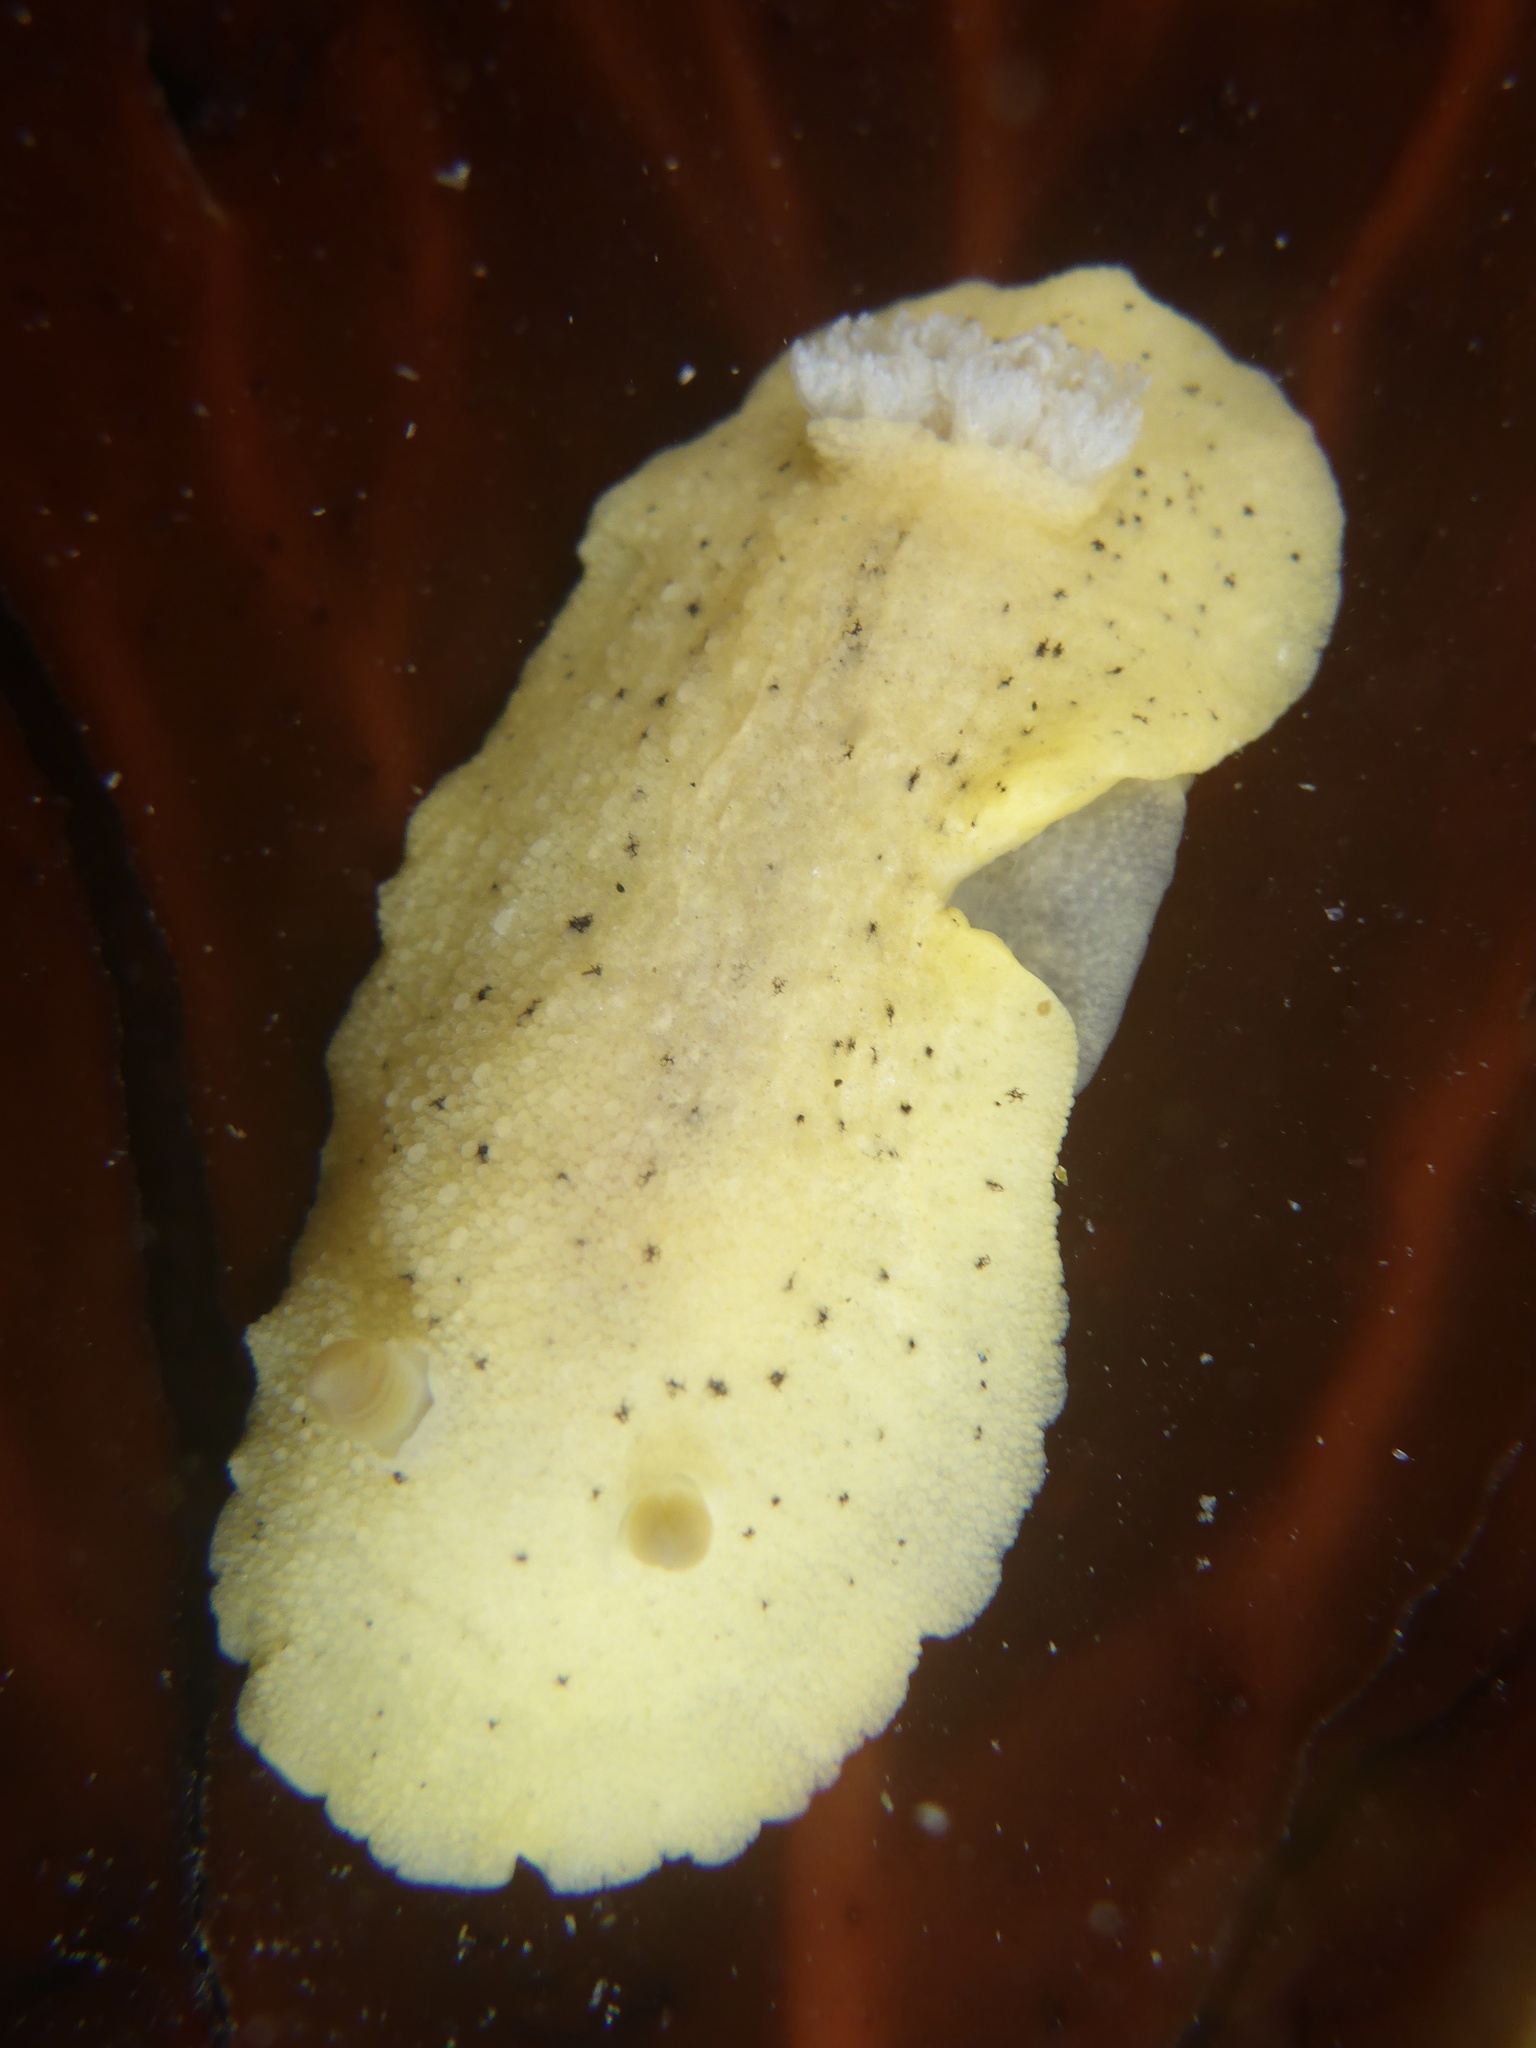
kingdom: Animalia
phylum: Mollusca
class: Gastropoda
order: Nudibranchia
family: Discodorididae
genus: Geitodoris
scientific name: Geitodoris heathi
